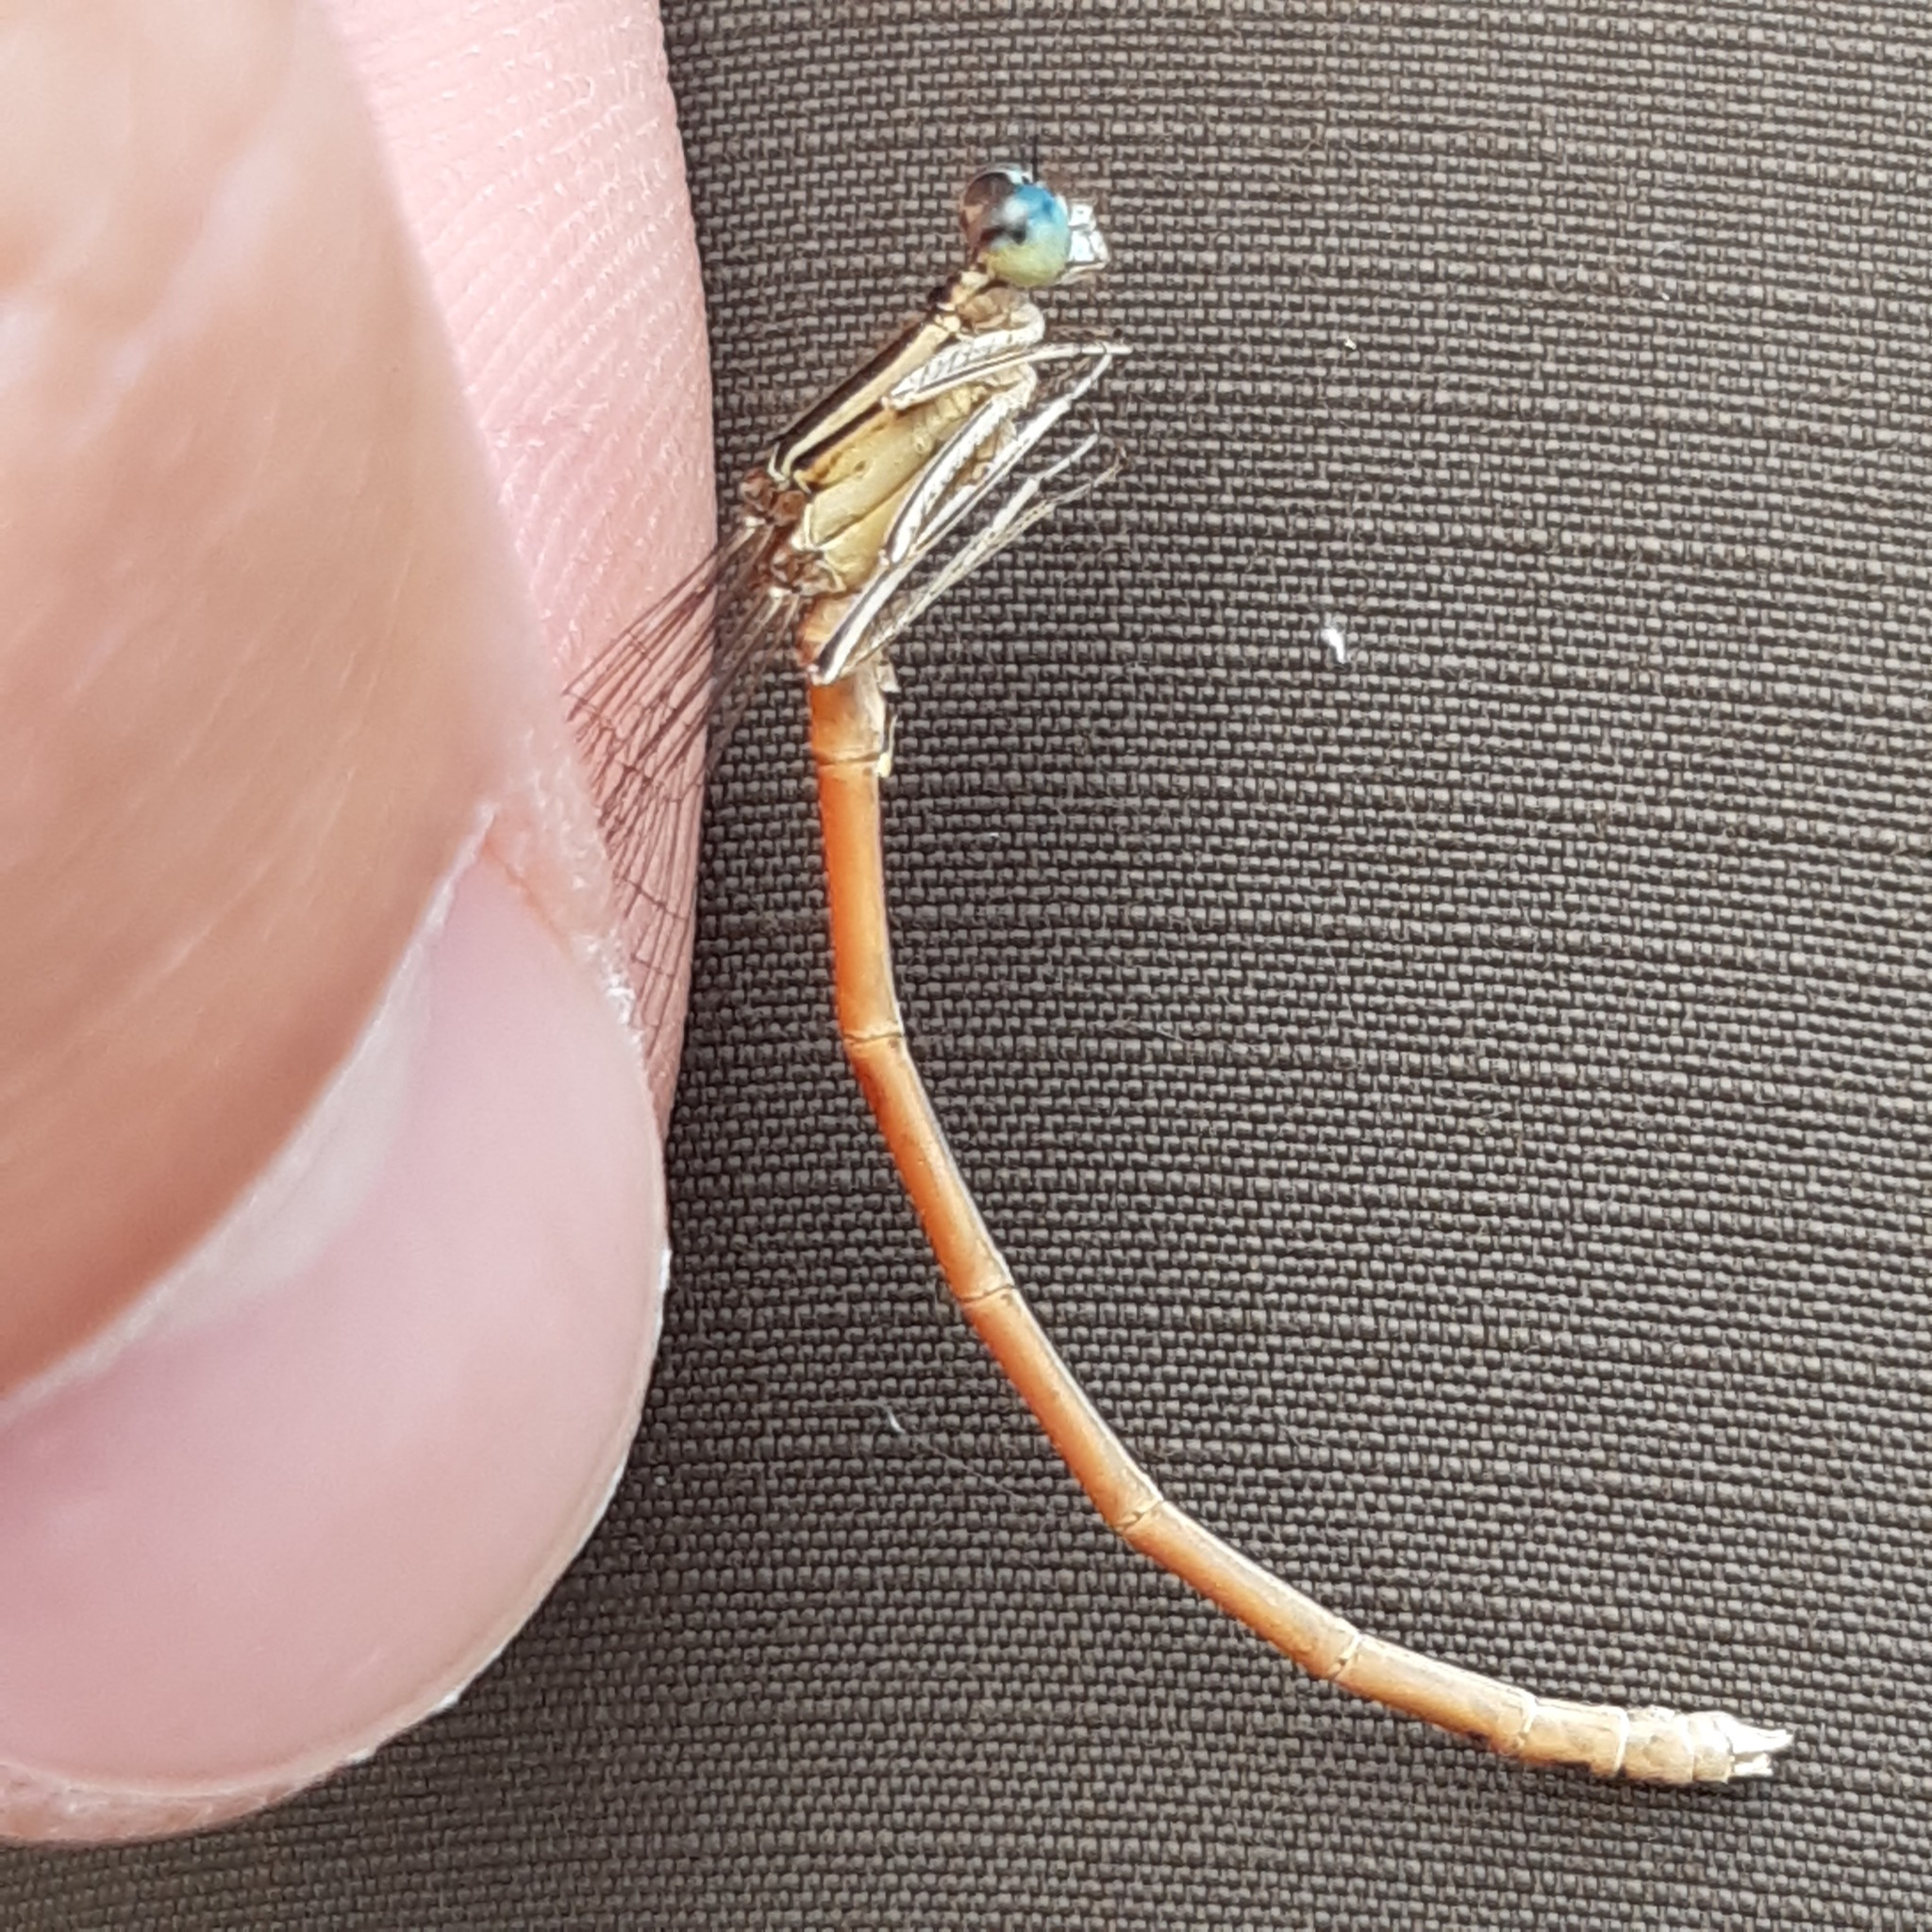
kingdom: Animalia
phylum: Arthropoda
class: Insecta
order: Odonata
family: Platycnemididae
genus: Platycnemis
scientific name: Platycnemis acutipennis
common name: Orange featherleg
